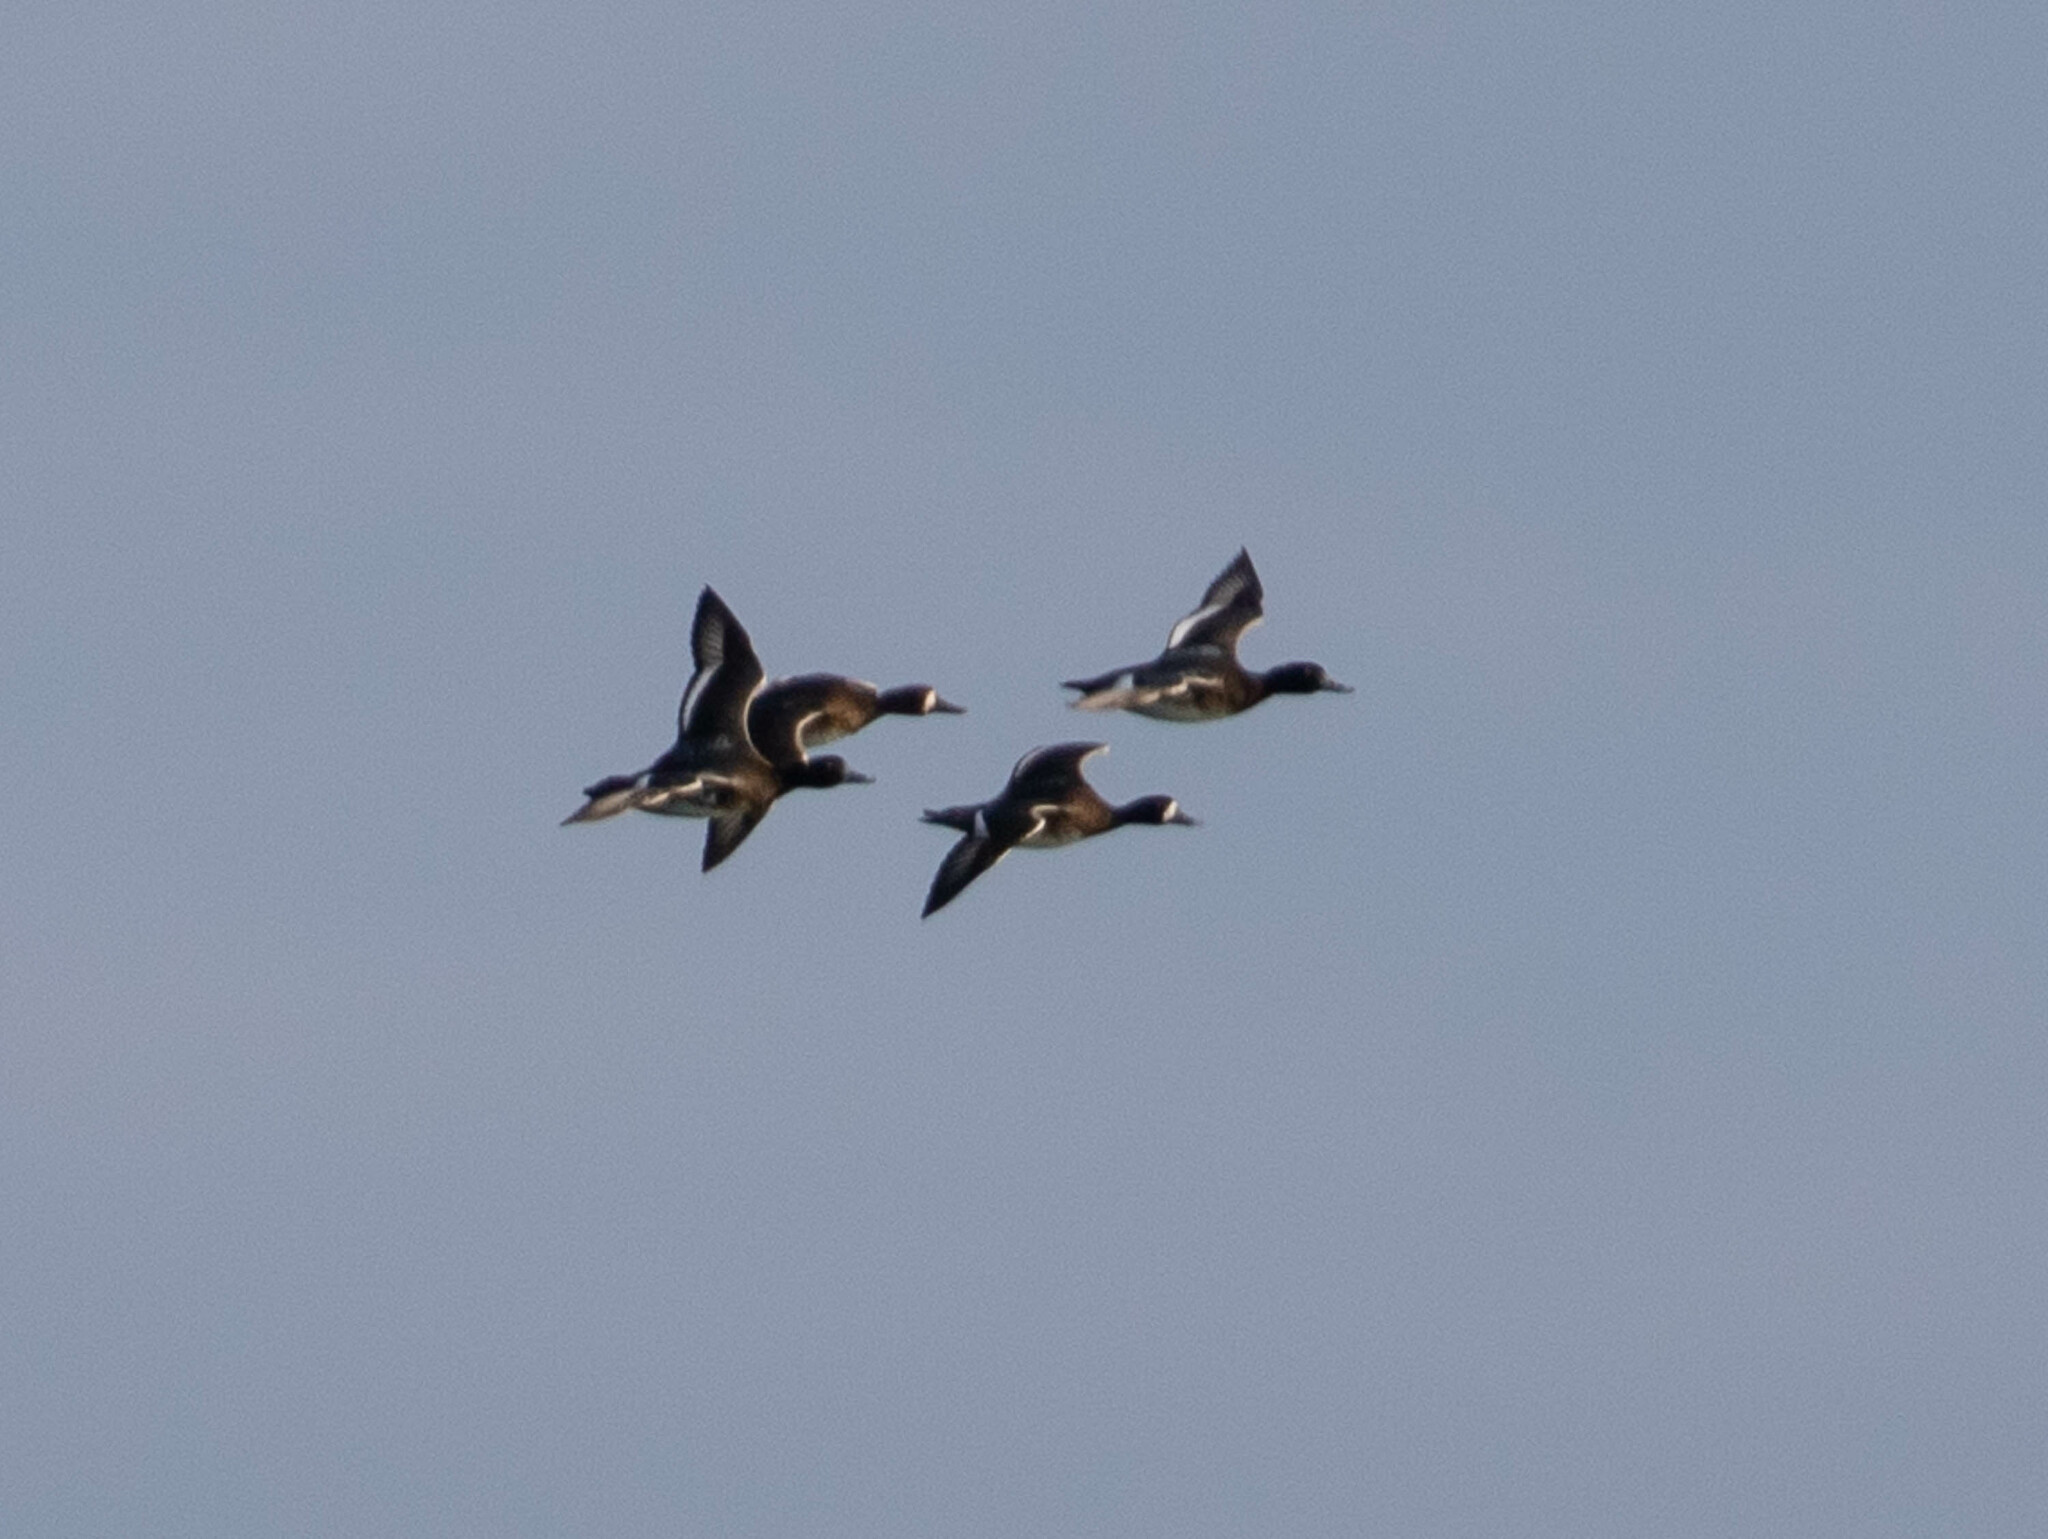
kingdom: Animalia
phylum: Chordata
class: Aves
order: Charadriiformes
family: Scolopacidae
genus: Calidris
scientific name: Calidris minutilla
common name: Least sandpiper
